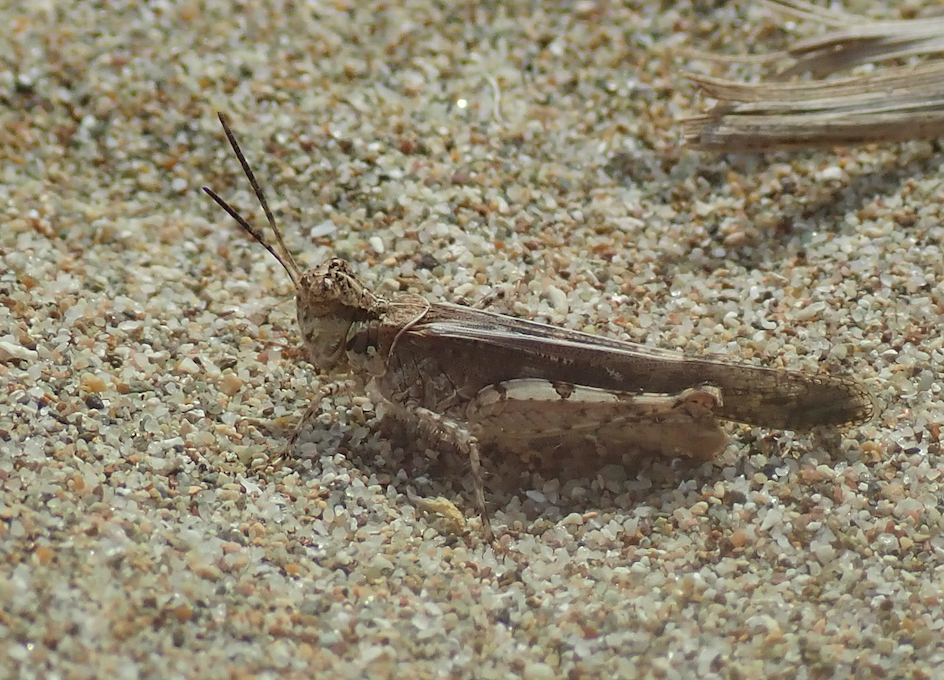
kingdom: Animalia
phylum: Arthropoda
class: Insecta
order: Orthoptera
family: Acrididae
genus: Acrotylus
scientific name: Acrotylus patruelis
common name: Slender burrowing grasshopper
